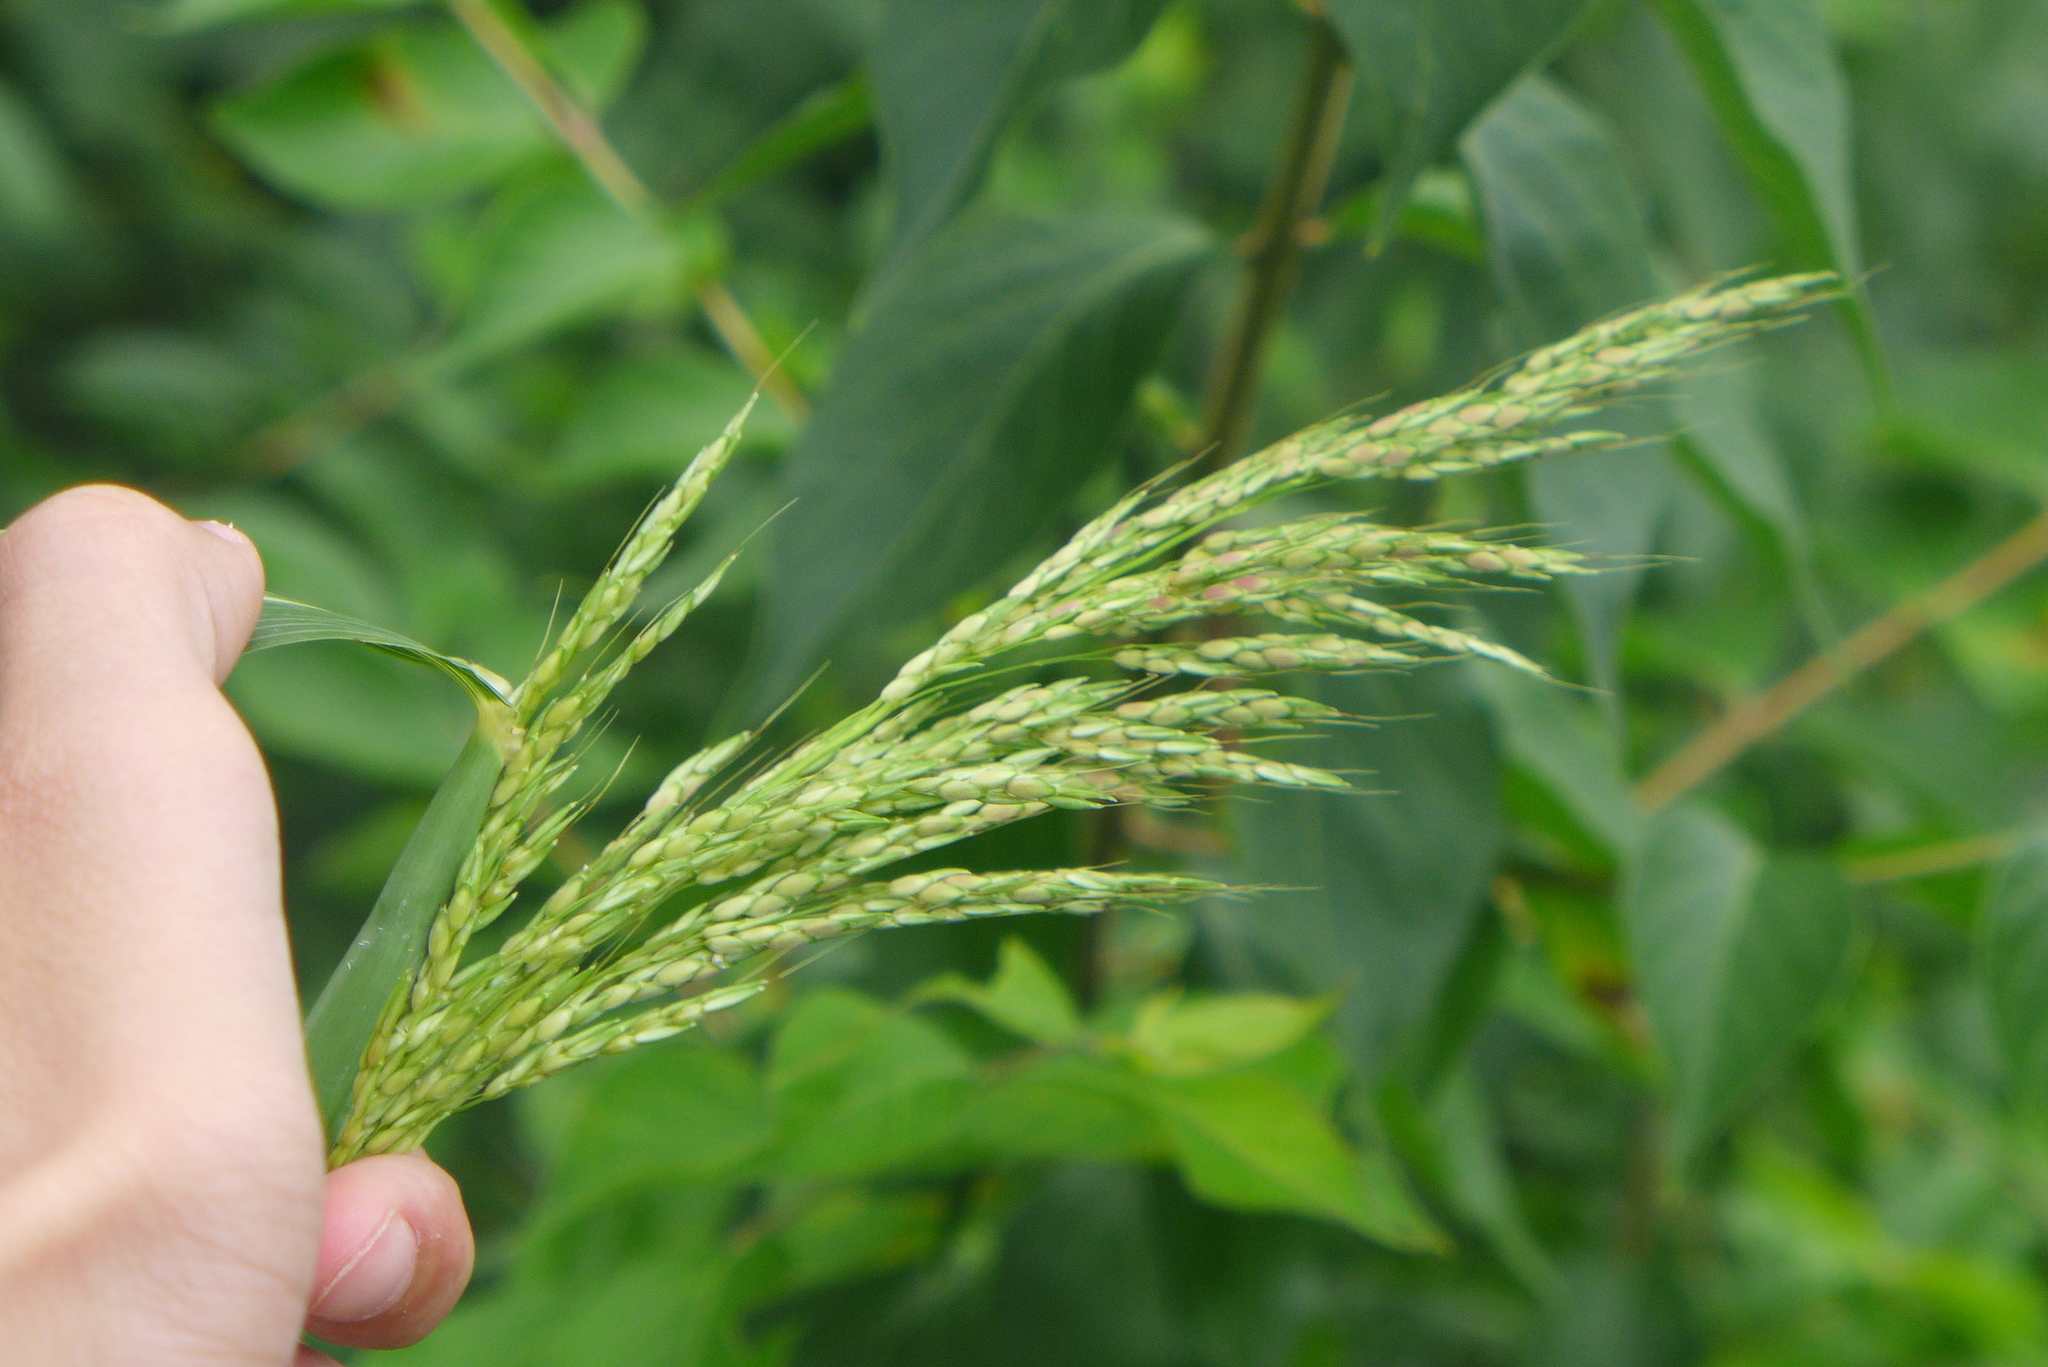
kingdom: Plantae
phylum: Tracheophyta
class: Liliopsida
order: Poales
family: Poaceae
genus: Sorghum
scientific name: Sorghum halepense
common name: Johnson-grass
